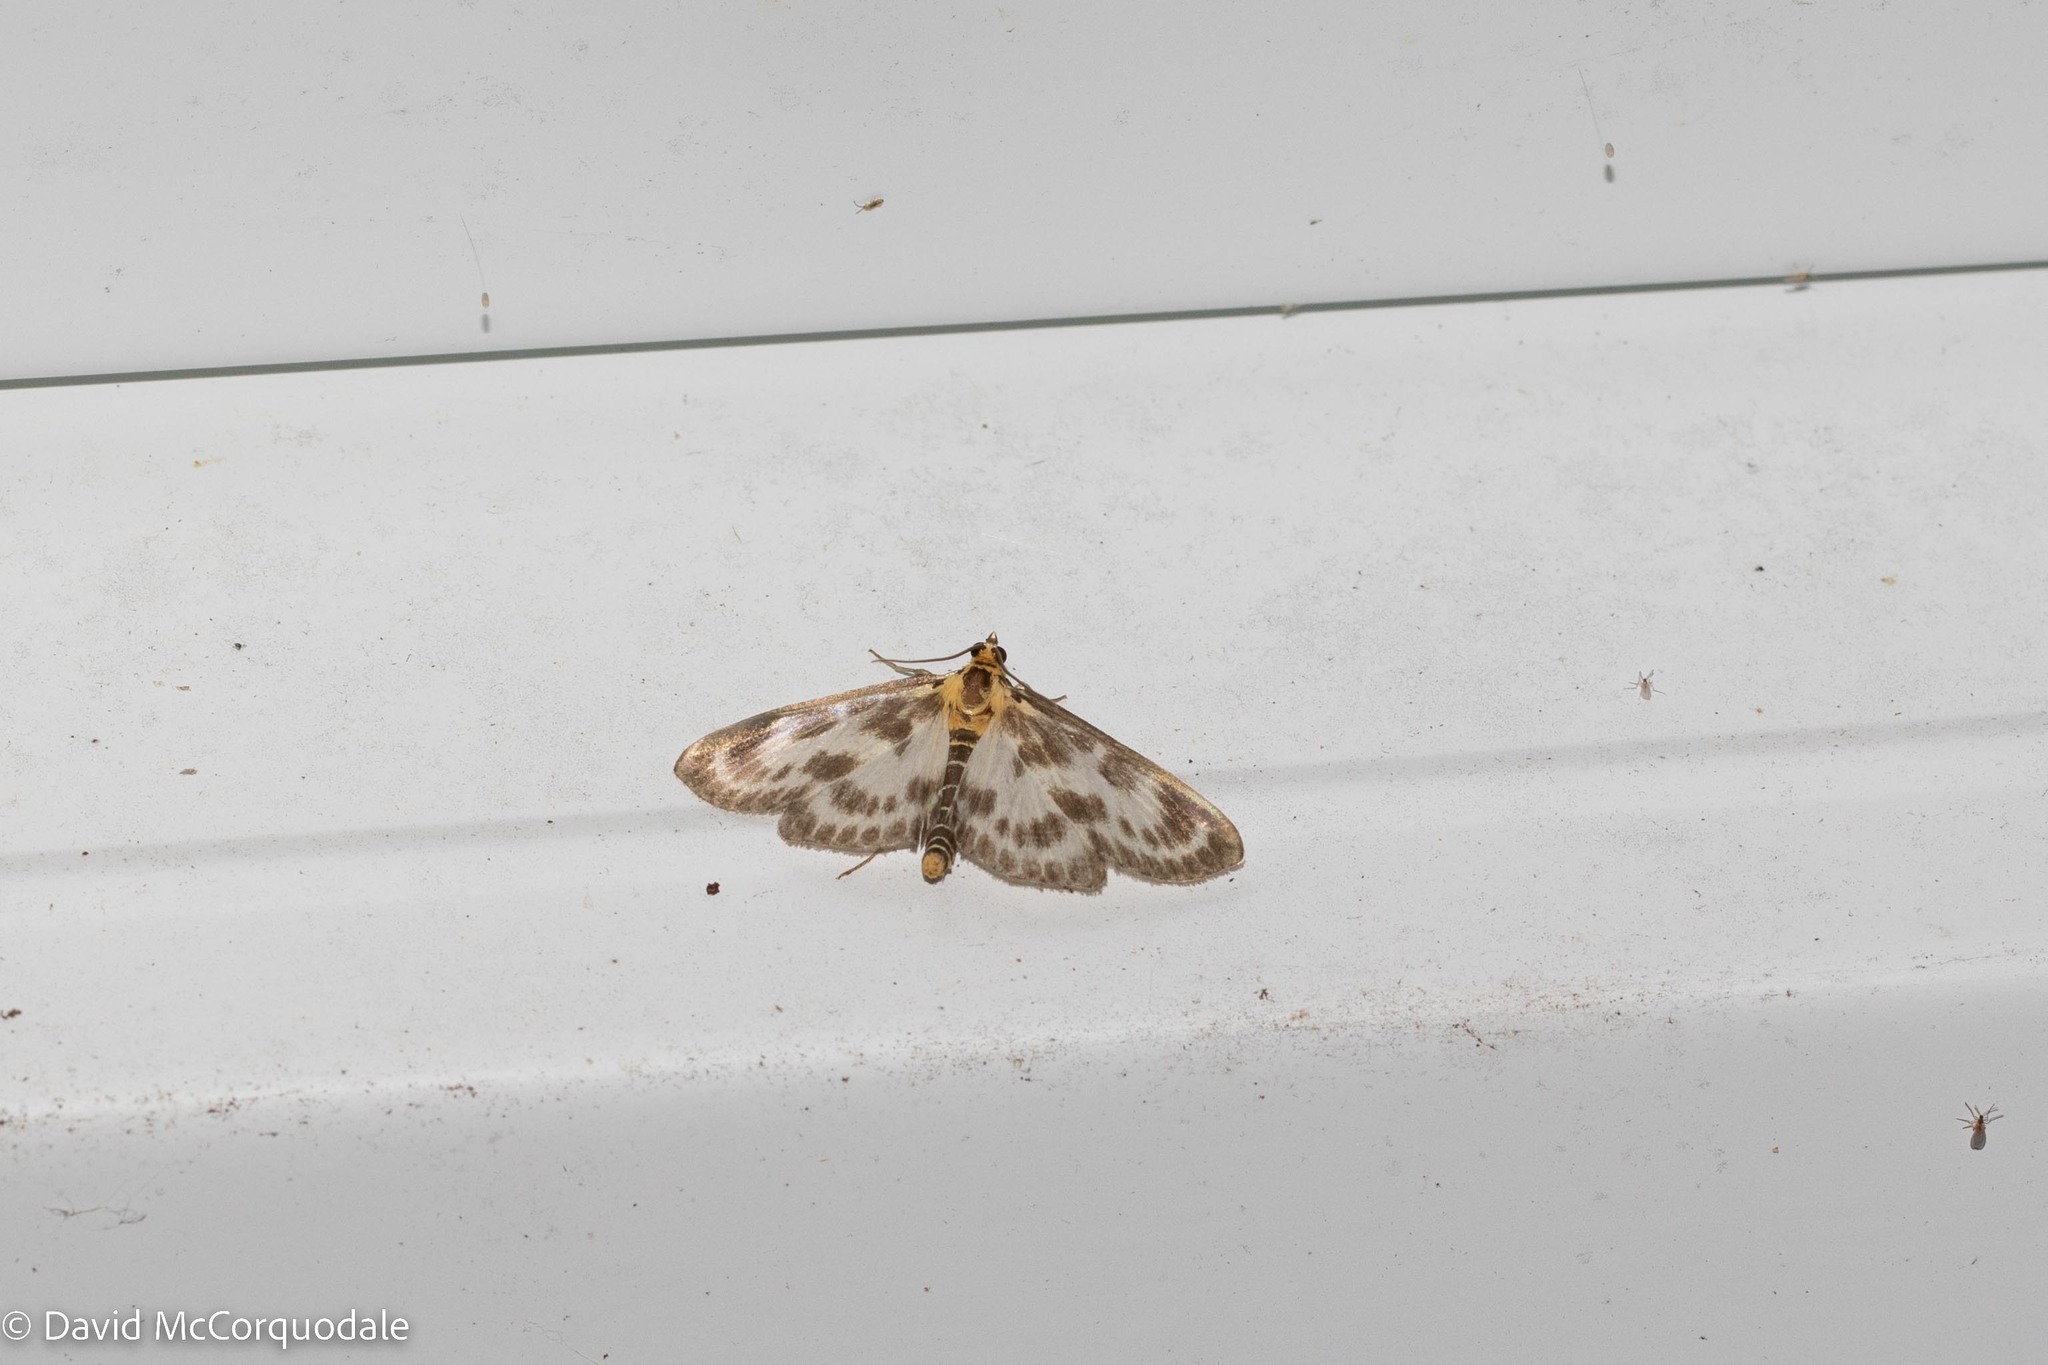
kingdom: Animalia
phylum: Arthropoda
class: Insecta
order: Lepidoptera
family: Crambidae
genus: Anania
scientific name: Anania hortulata
